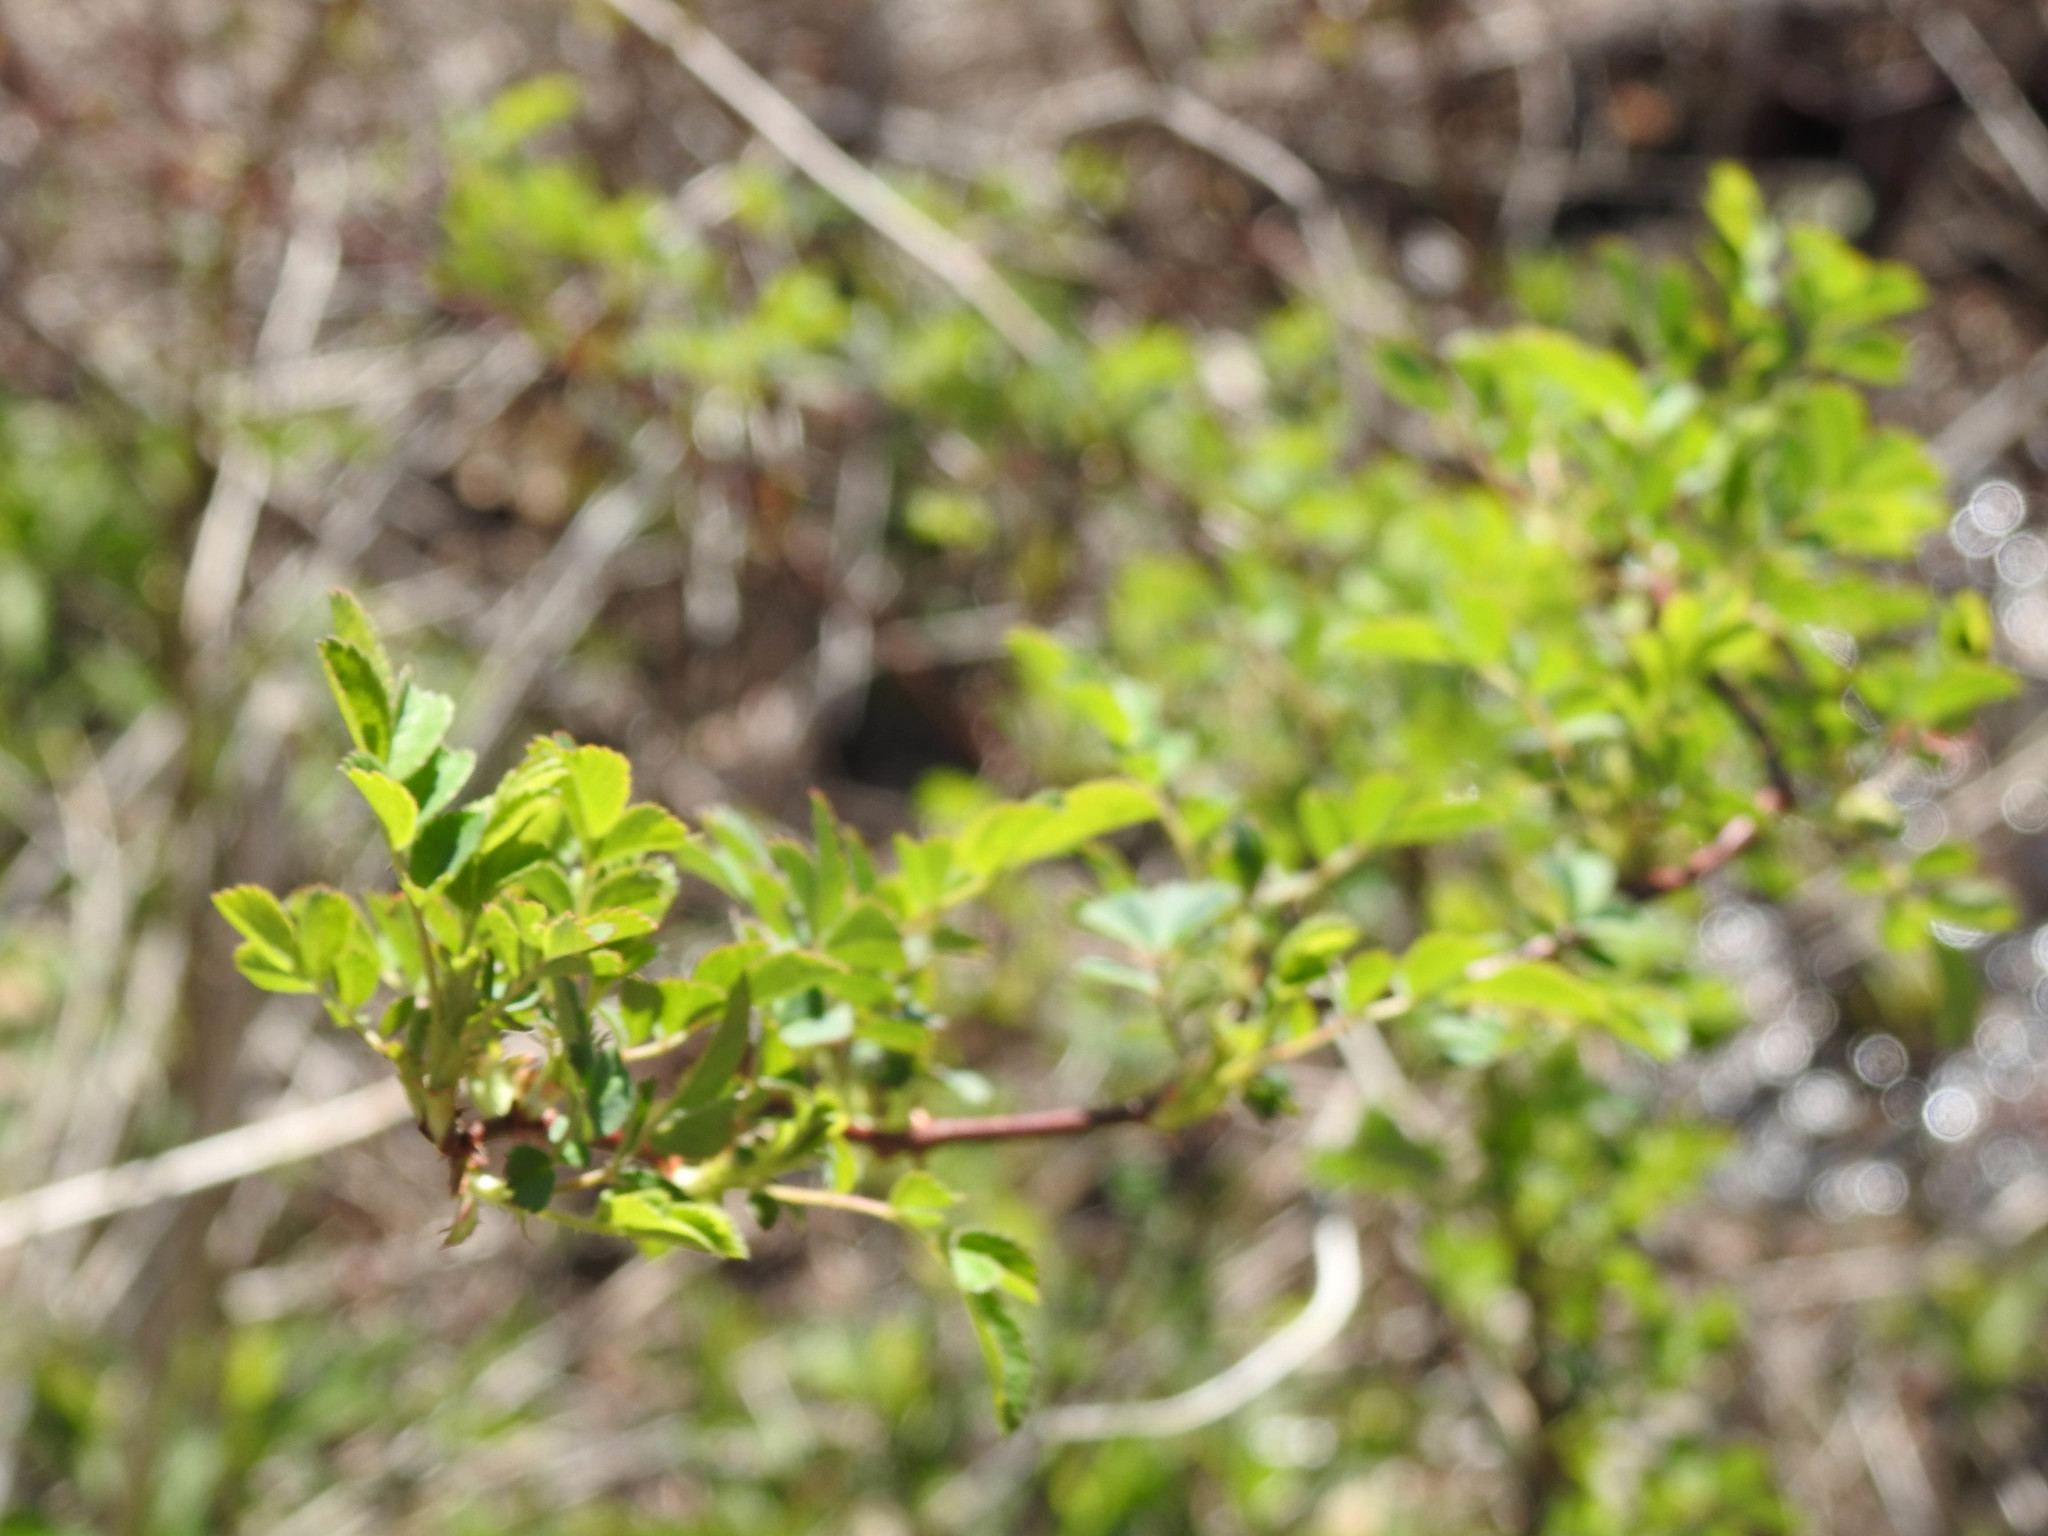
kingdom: Plantae
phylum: Tracheophyta
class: Magnoliopsida
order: Rosales
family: Rosaceae
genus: Rosa
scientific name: Rosa multiflora
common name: Multiflora rose
